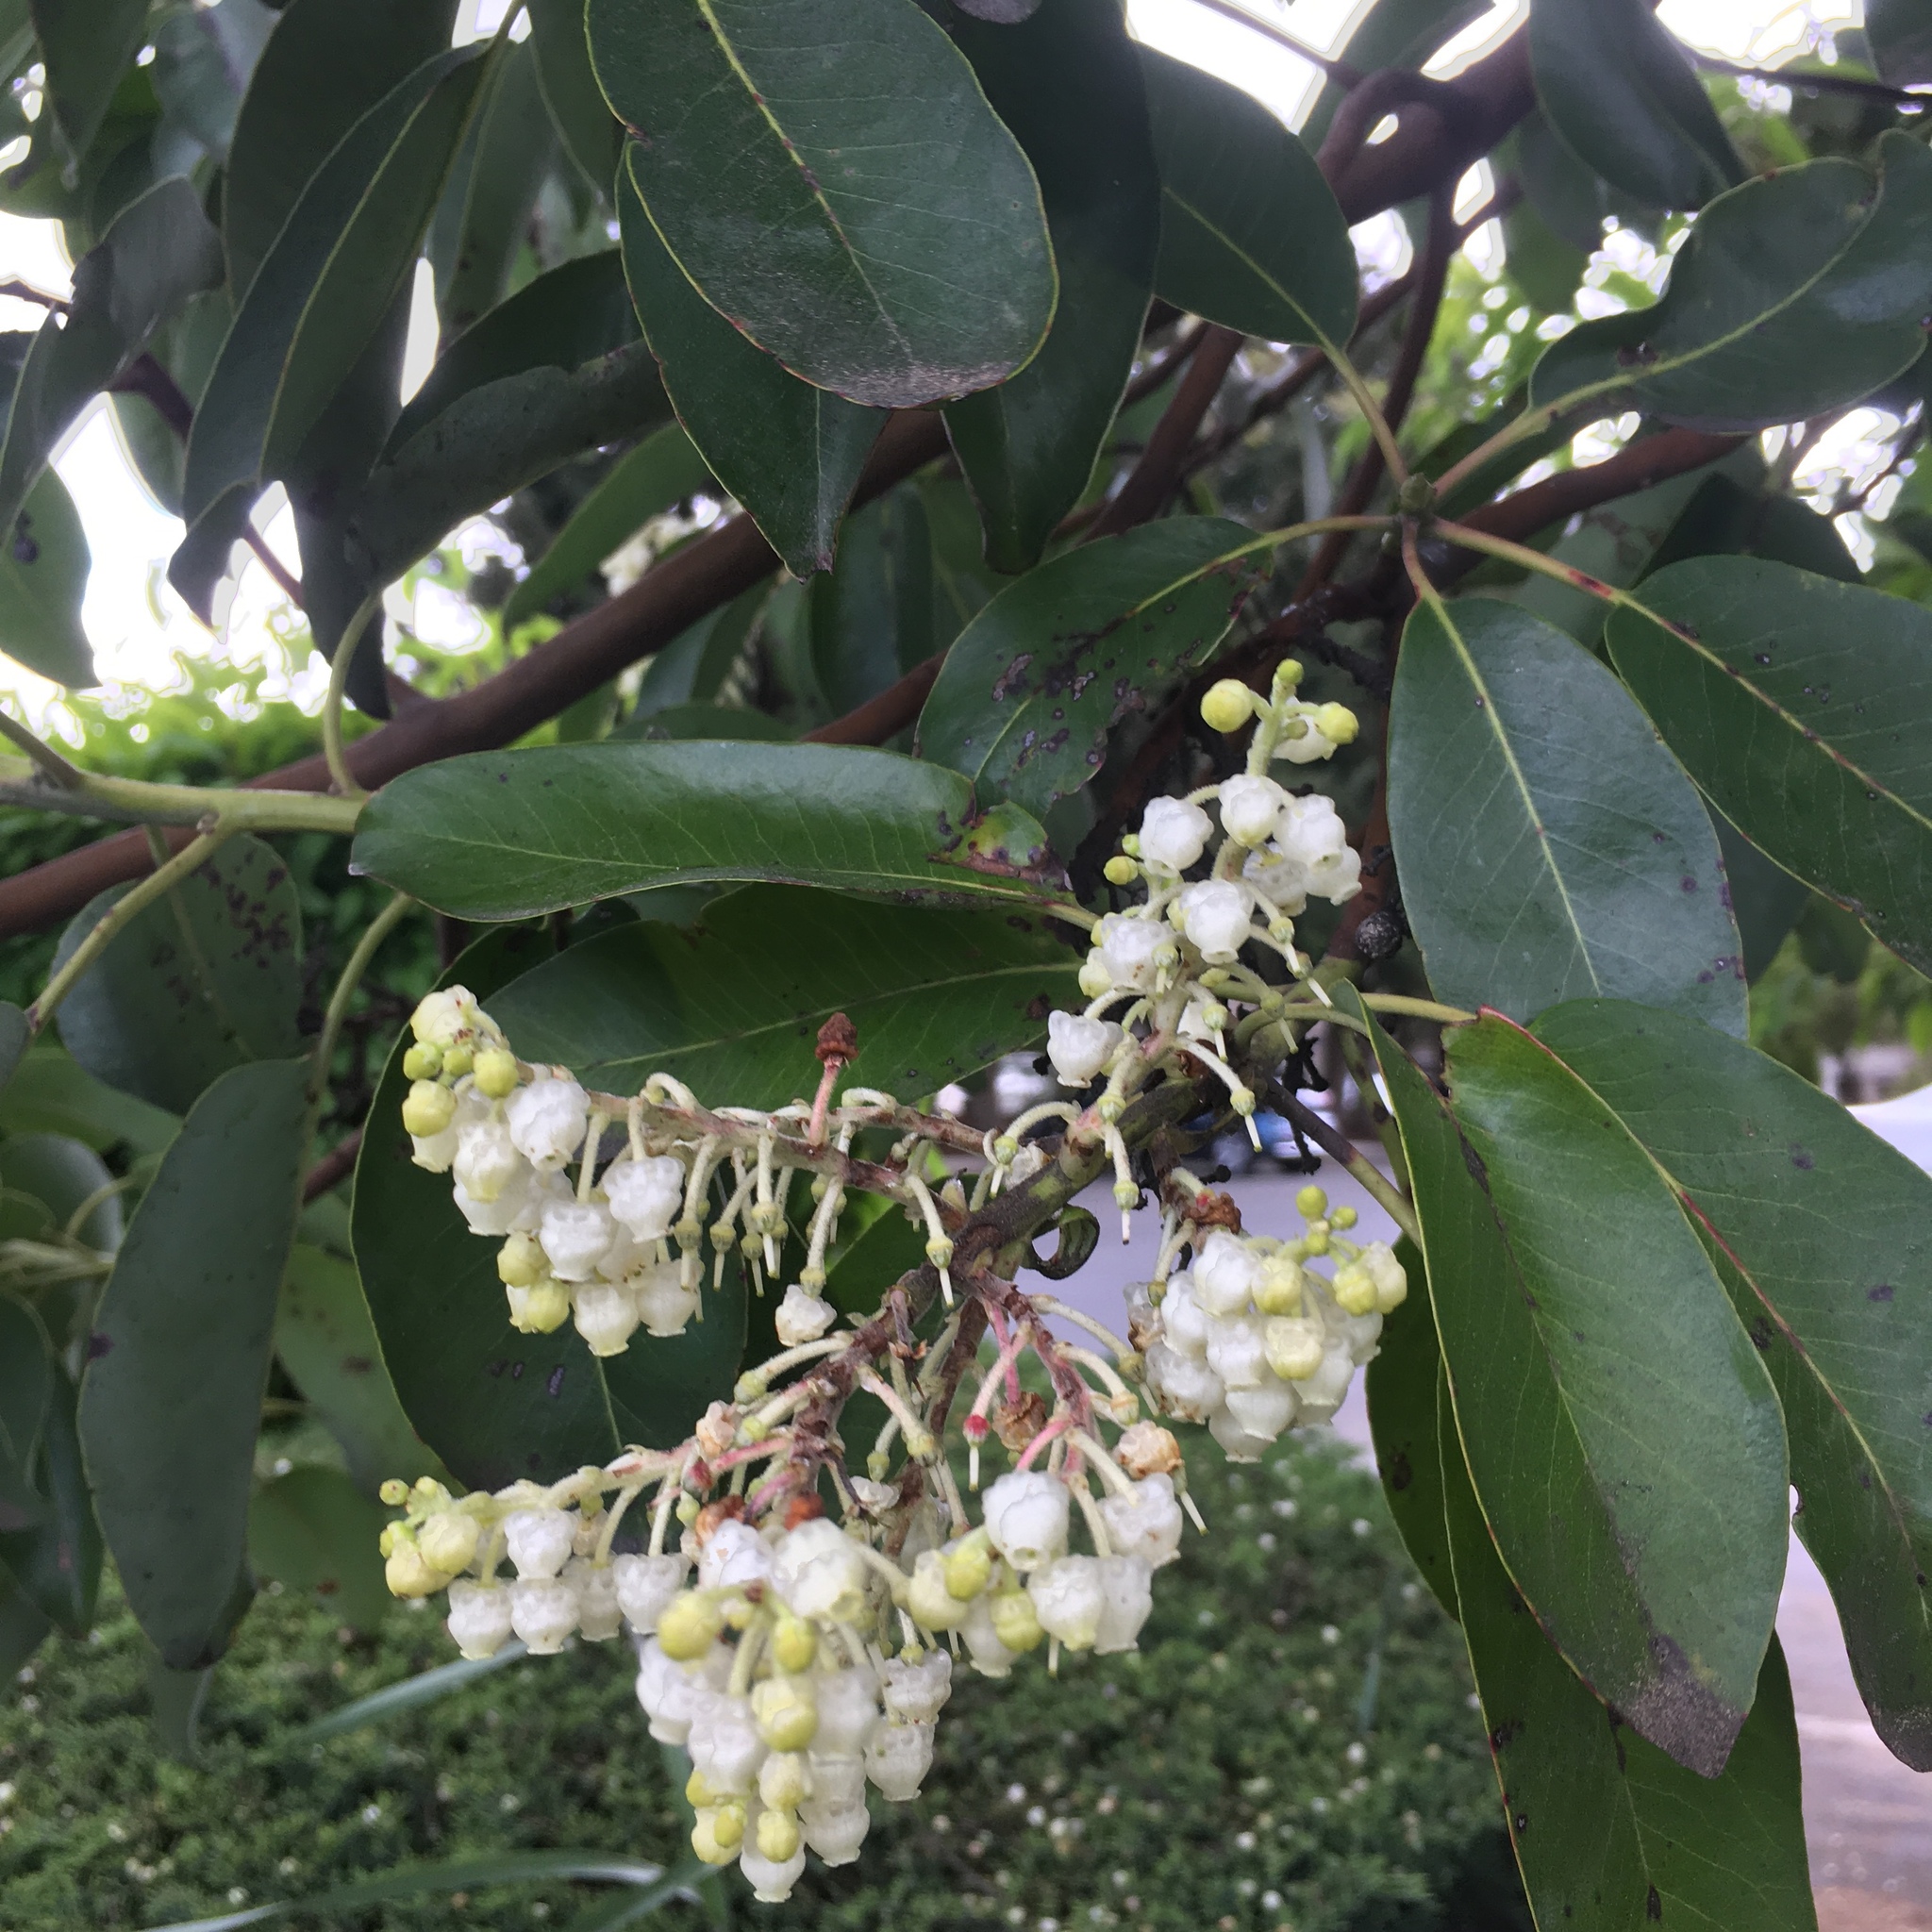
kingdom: Plantae
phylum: Tracheophyta
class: Magnoliopsida
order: Ericales
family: Ericaceae
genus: Arbutus
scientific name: Arbutus menziesii
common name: Pacific madrone
